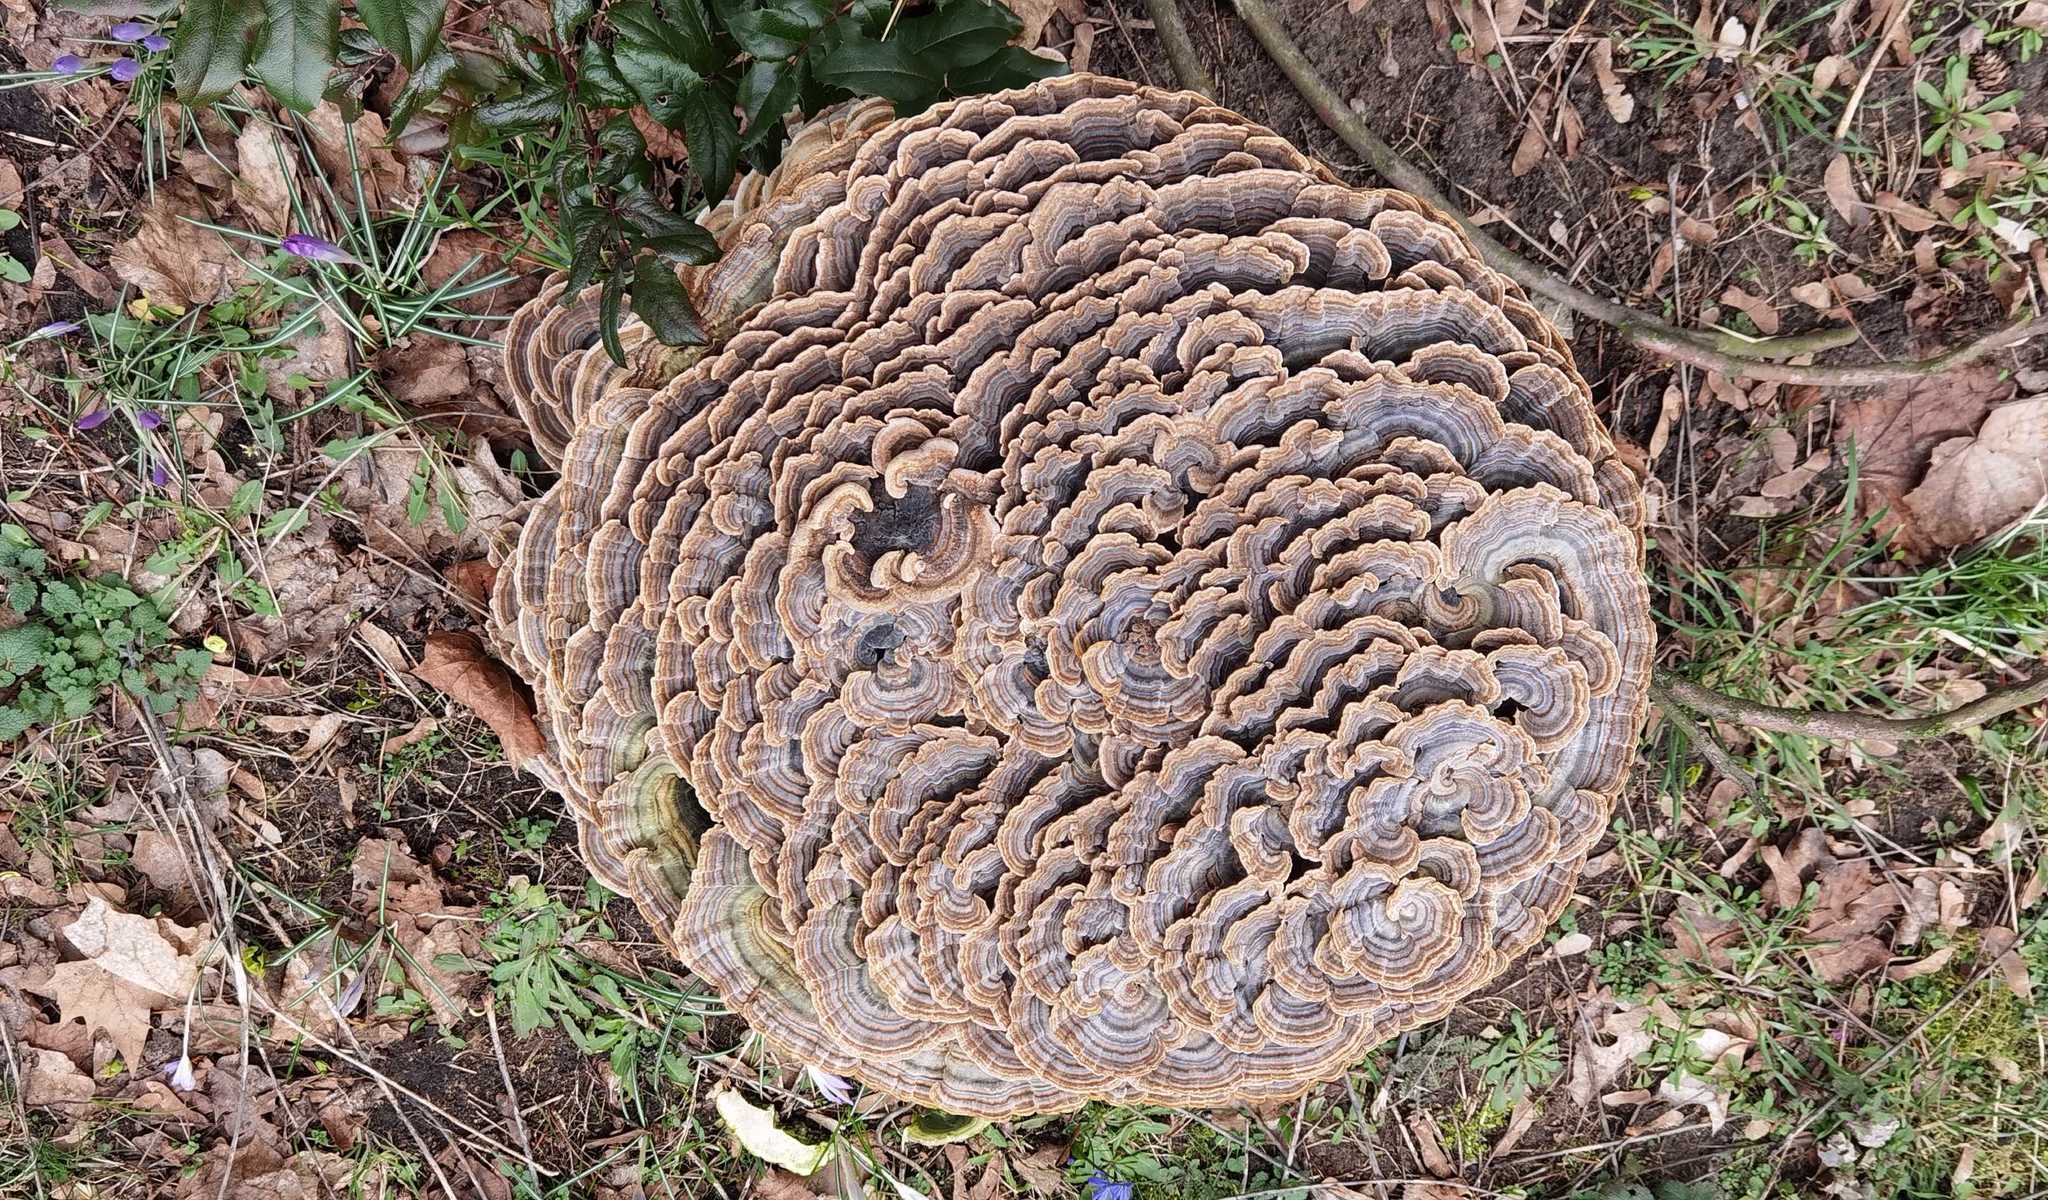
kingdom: Fungi
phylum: Basidiomycota
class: Agaricomycetes
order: Polyporales
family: Polyporaceae
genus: Trametes
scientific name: Trametes versicolor
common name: Turkeytail
